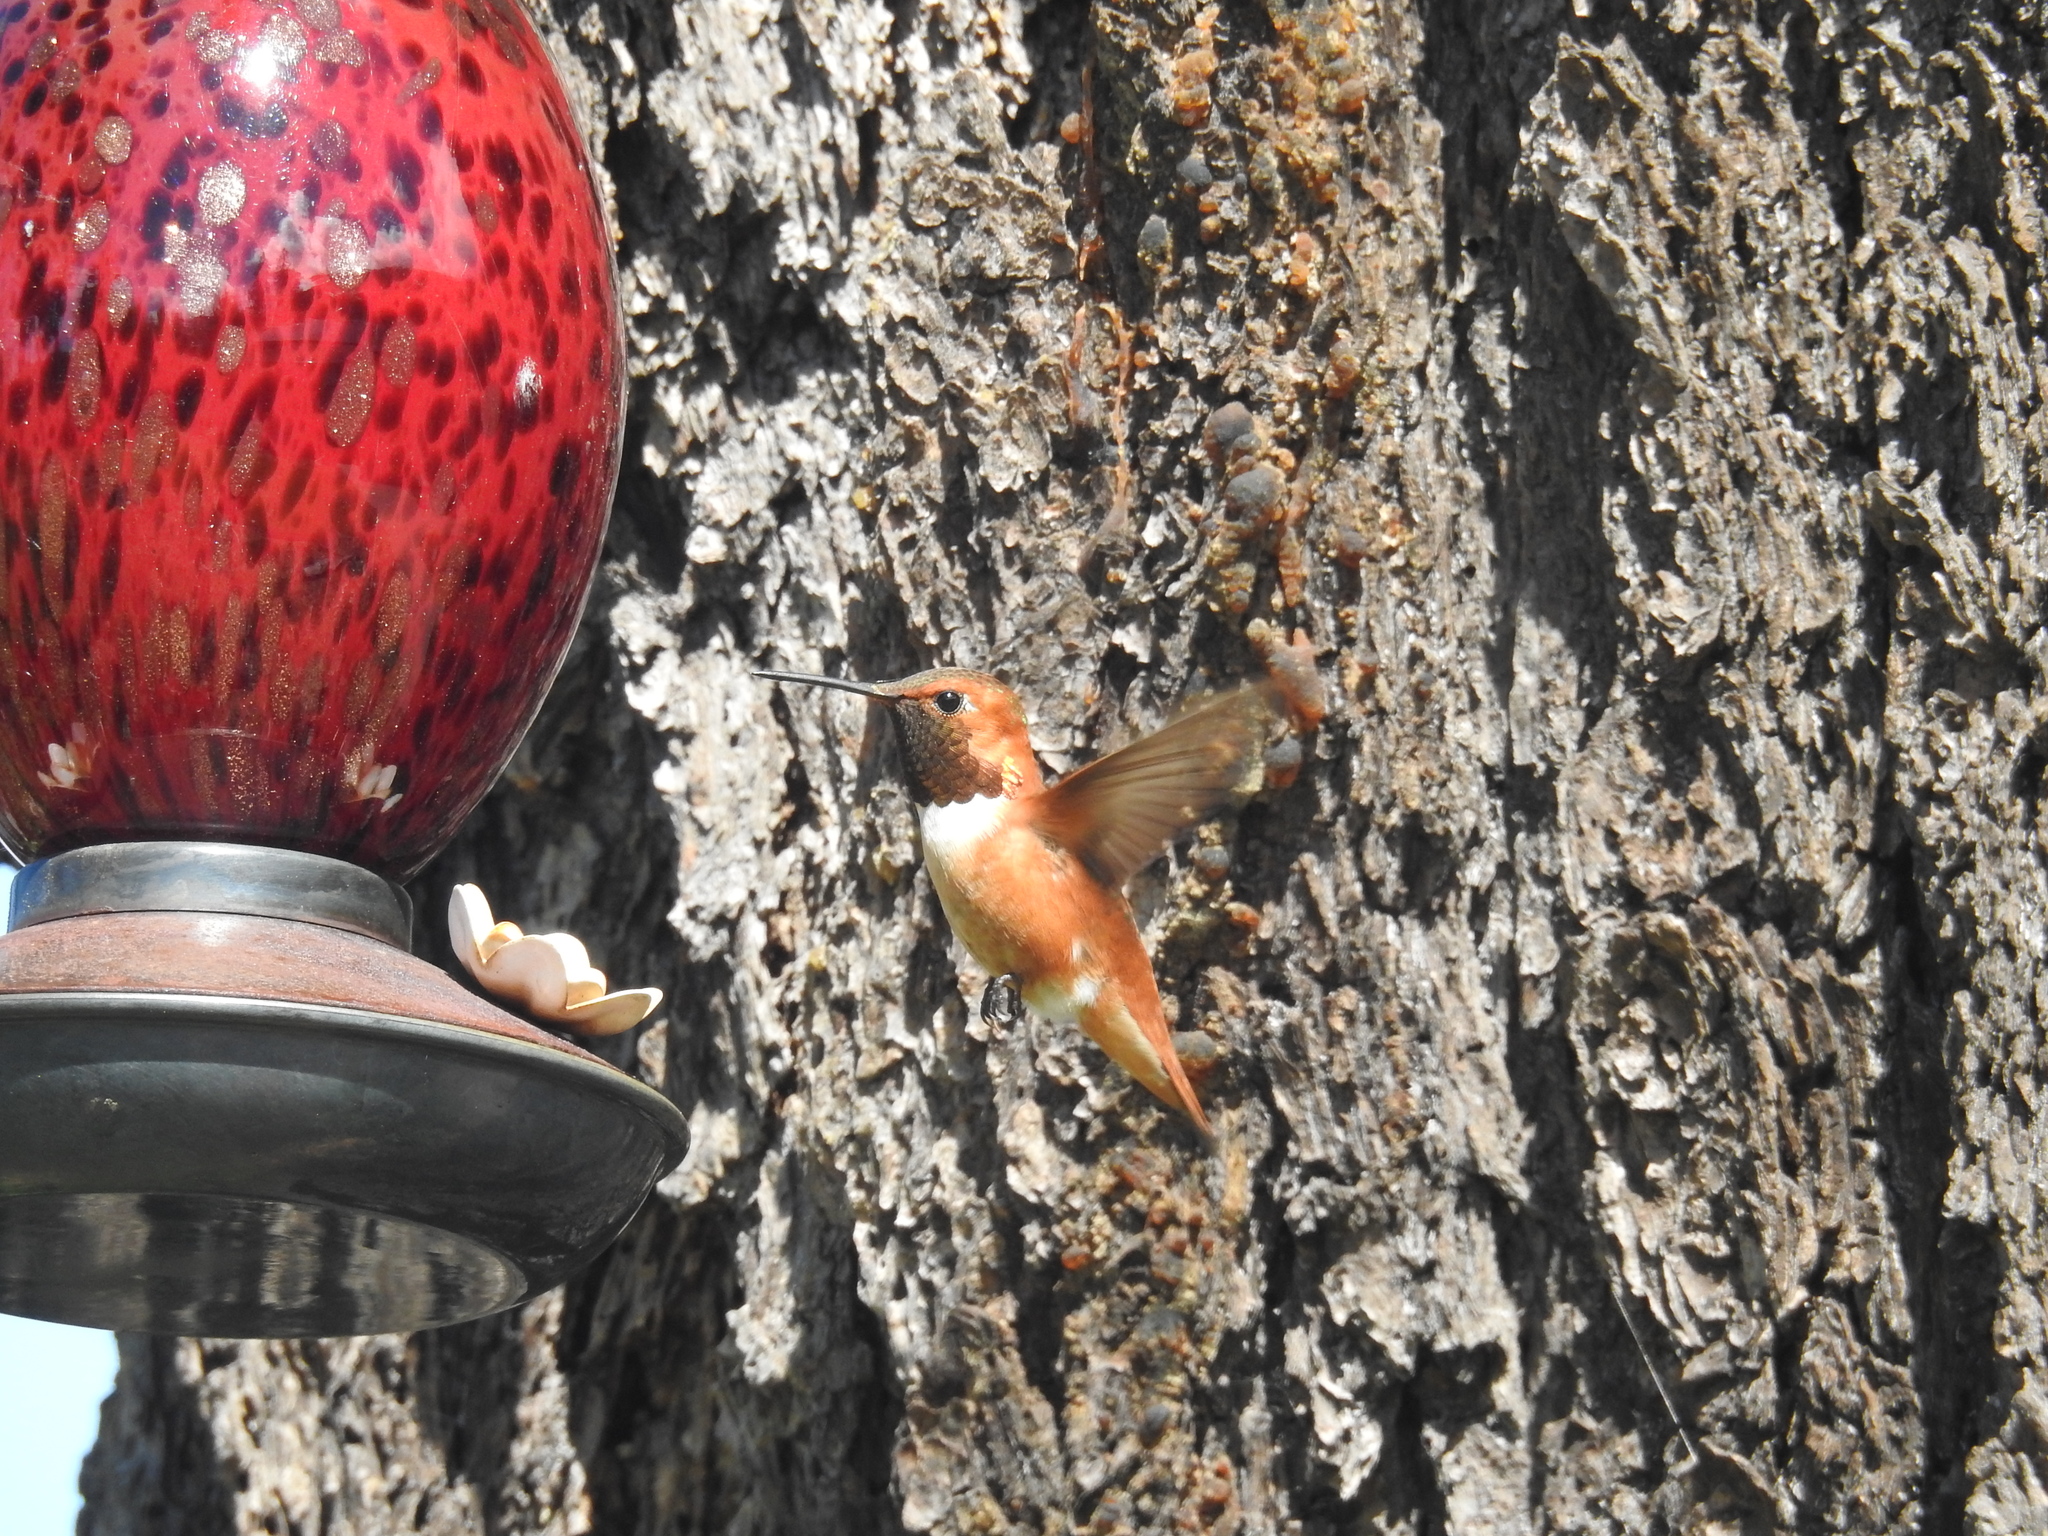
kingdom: Animalia
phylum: Chordata
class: Aves
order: Apodiformes
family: Trochilidae
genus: Selasphorus
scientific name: Selasphorus rufus
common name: Rufous hummingbird
